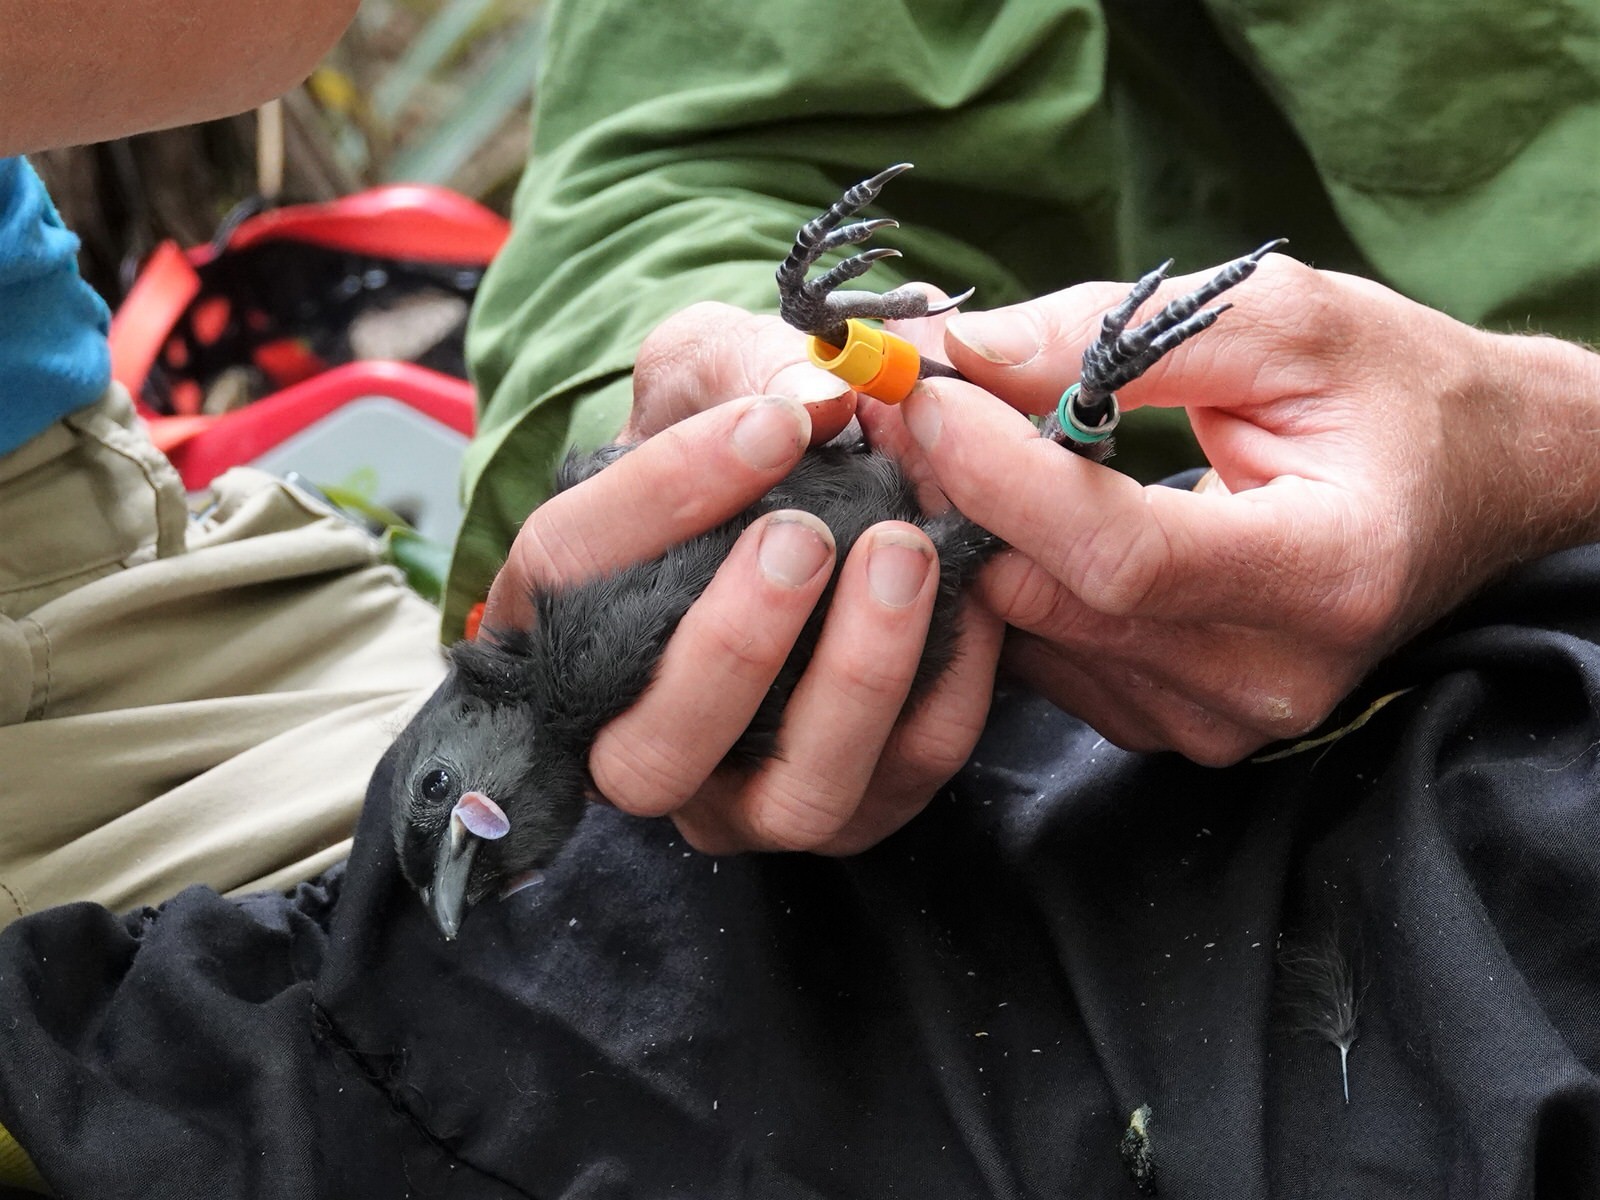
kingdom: Animalia
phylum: Chordata
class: Aves
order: Passeriformes
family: Callaeatidae
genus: Callaeas
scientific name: Callaeas cinereus
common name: South island kokako
